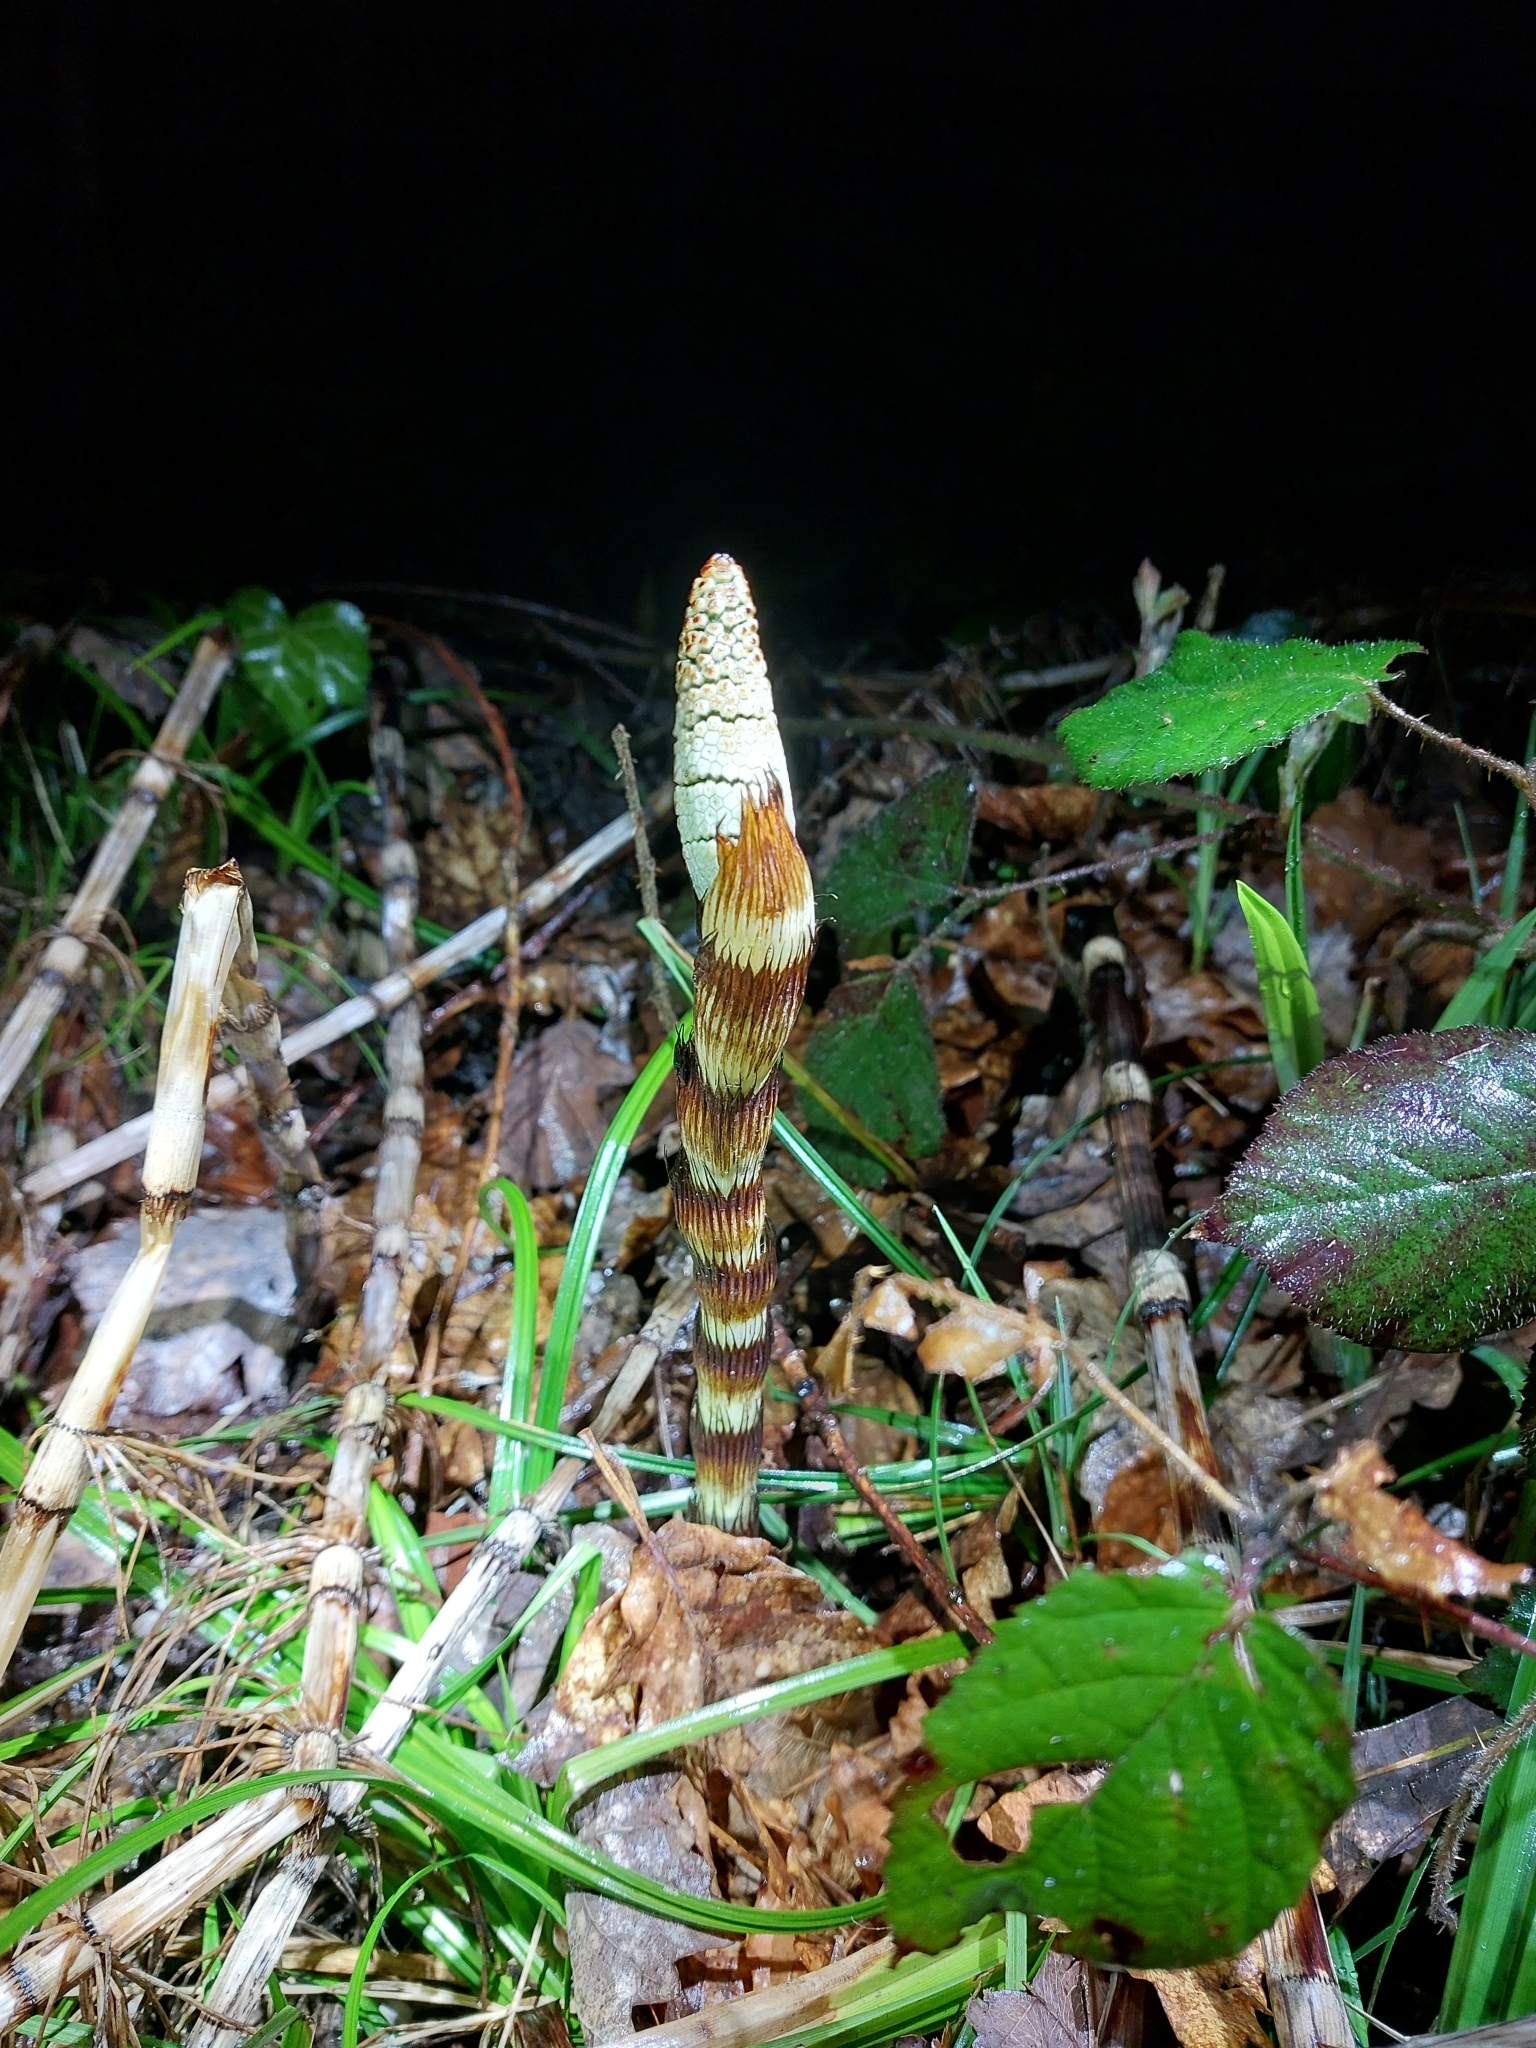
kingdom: Plantae
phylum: Tracheophyta
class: Polypodiopsida
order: Equisetales
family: Equisetaceae
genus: Equisetum
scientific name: Equisetum telmateia
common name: Great horsetail
